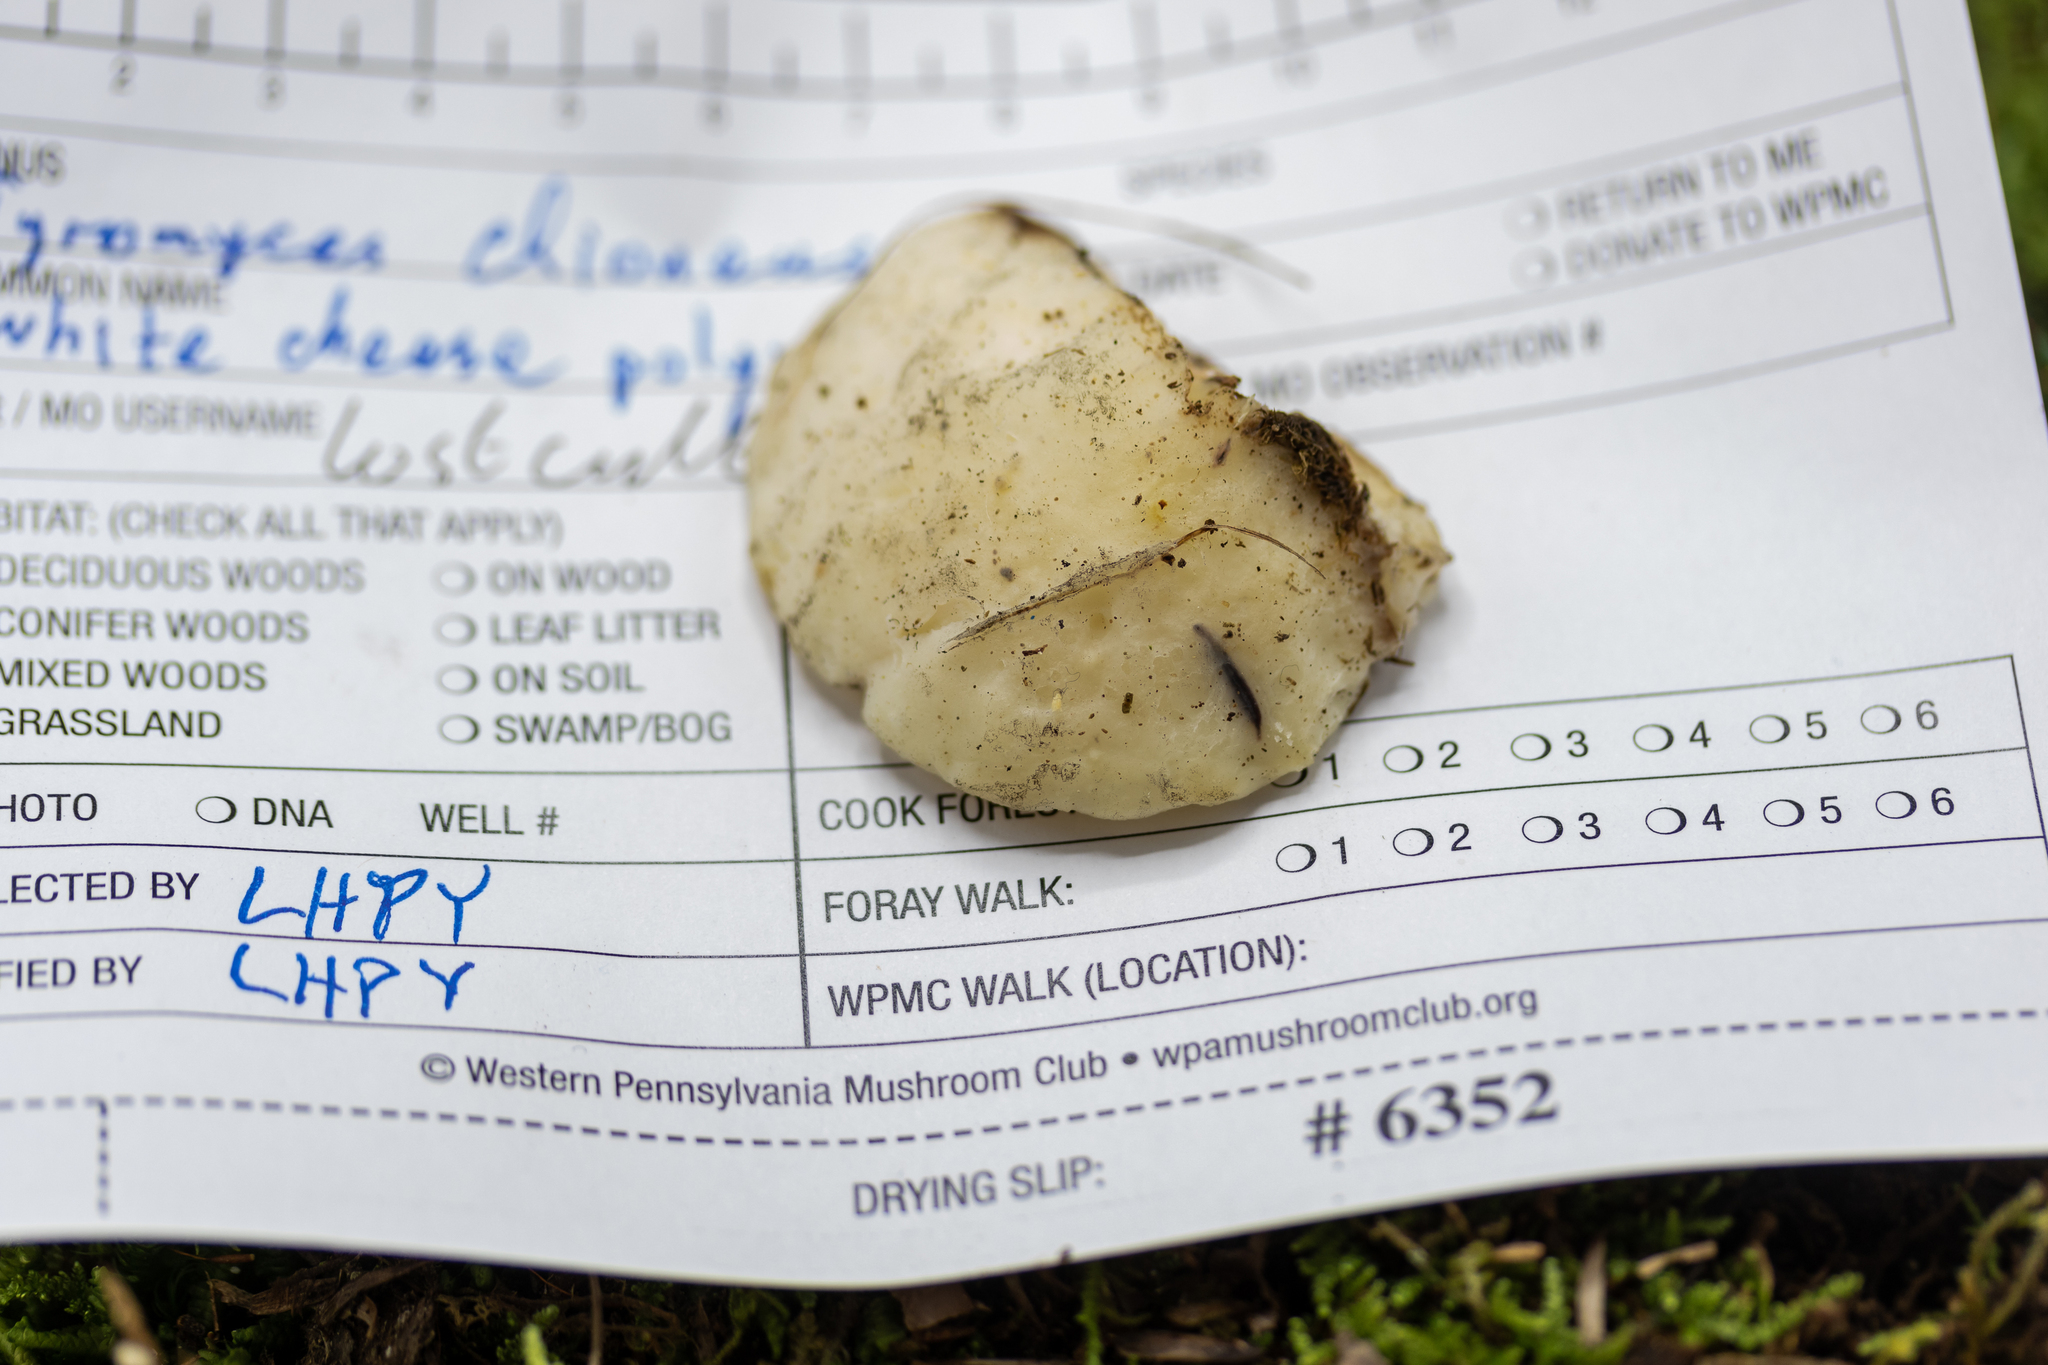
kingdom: Fungi
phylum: Basidiomycota
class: Agaricomycetes
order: Polyporales
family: Incrustoporiaceae
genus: Tyromyces
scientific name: Tyromyces chioneus
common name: White cheese polypore
